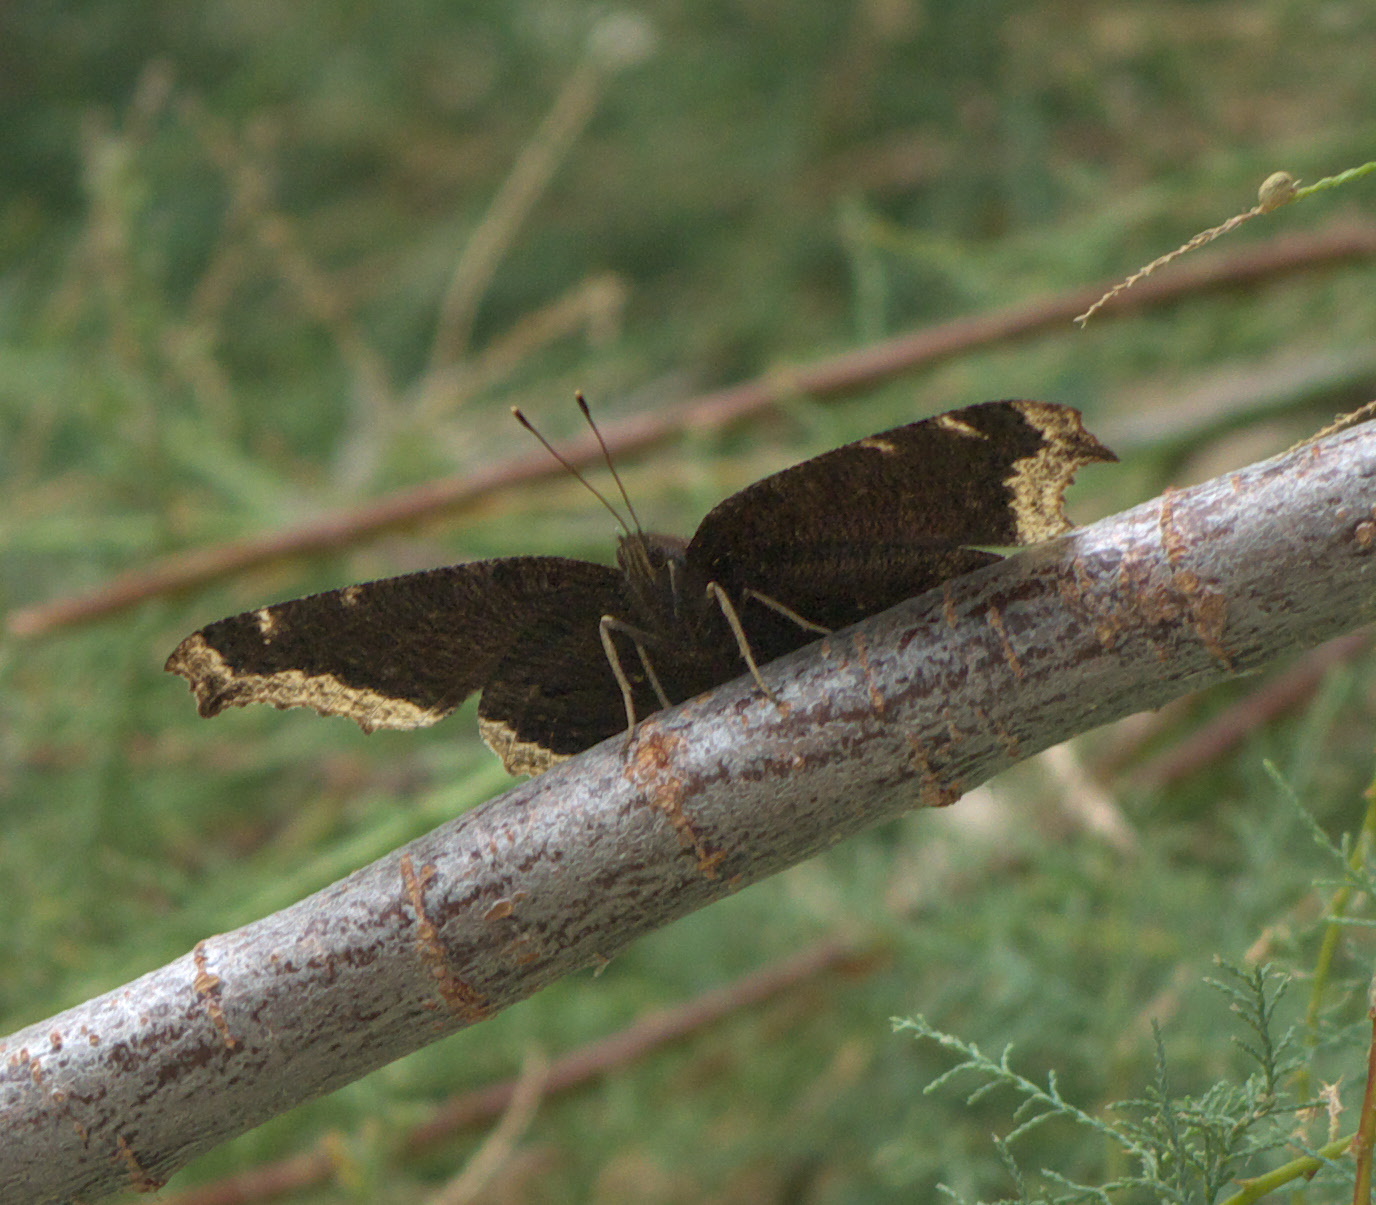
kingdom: Animalia
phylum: Arthropoda
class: Insecta
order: Lepidoptera
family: Nymphalidae
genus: Nymphalis
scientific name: Nymphalis antiopa
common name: Camberwell beauty
